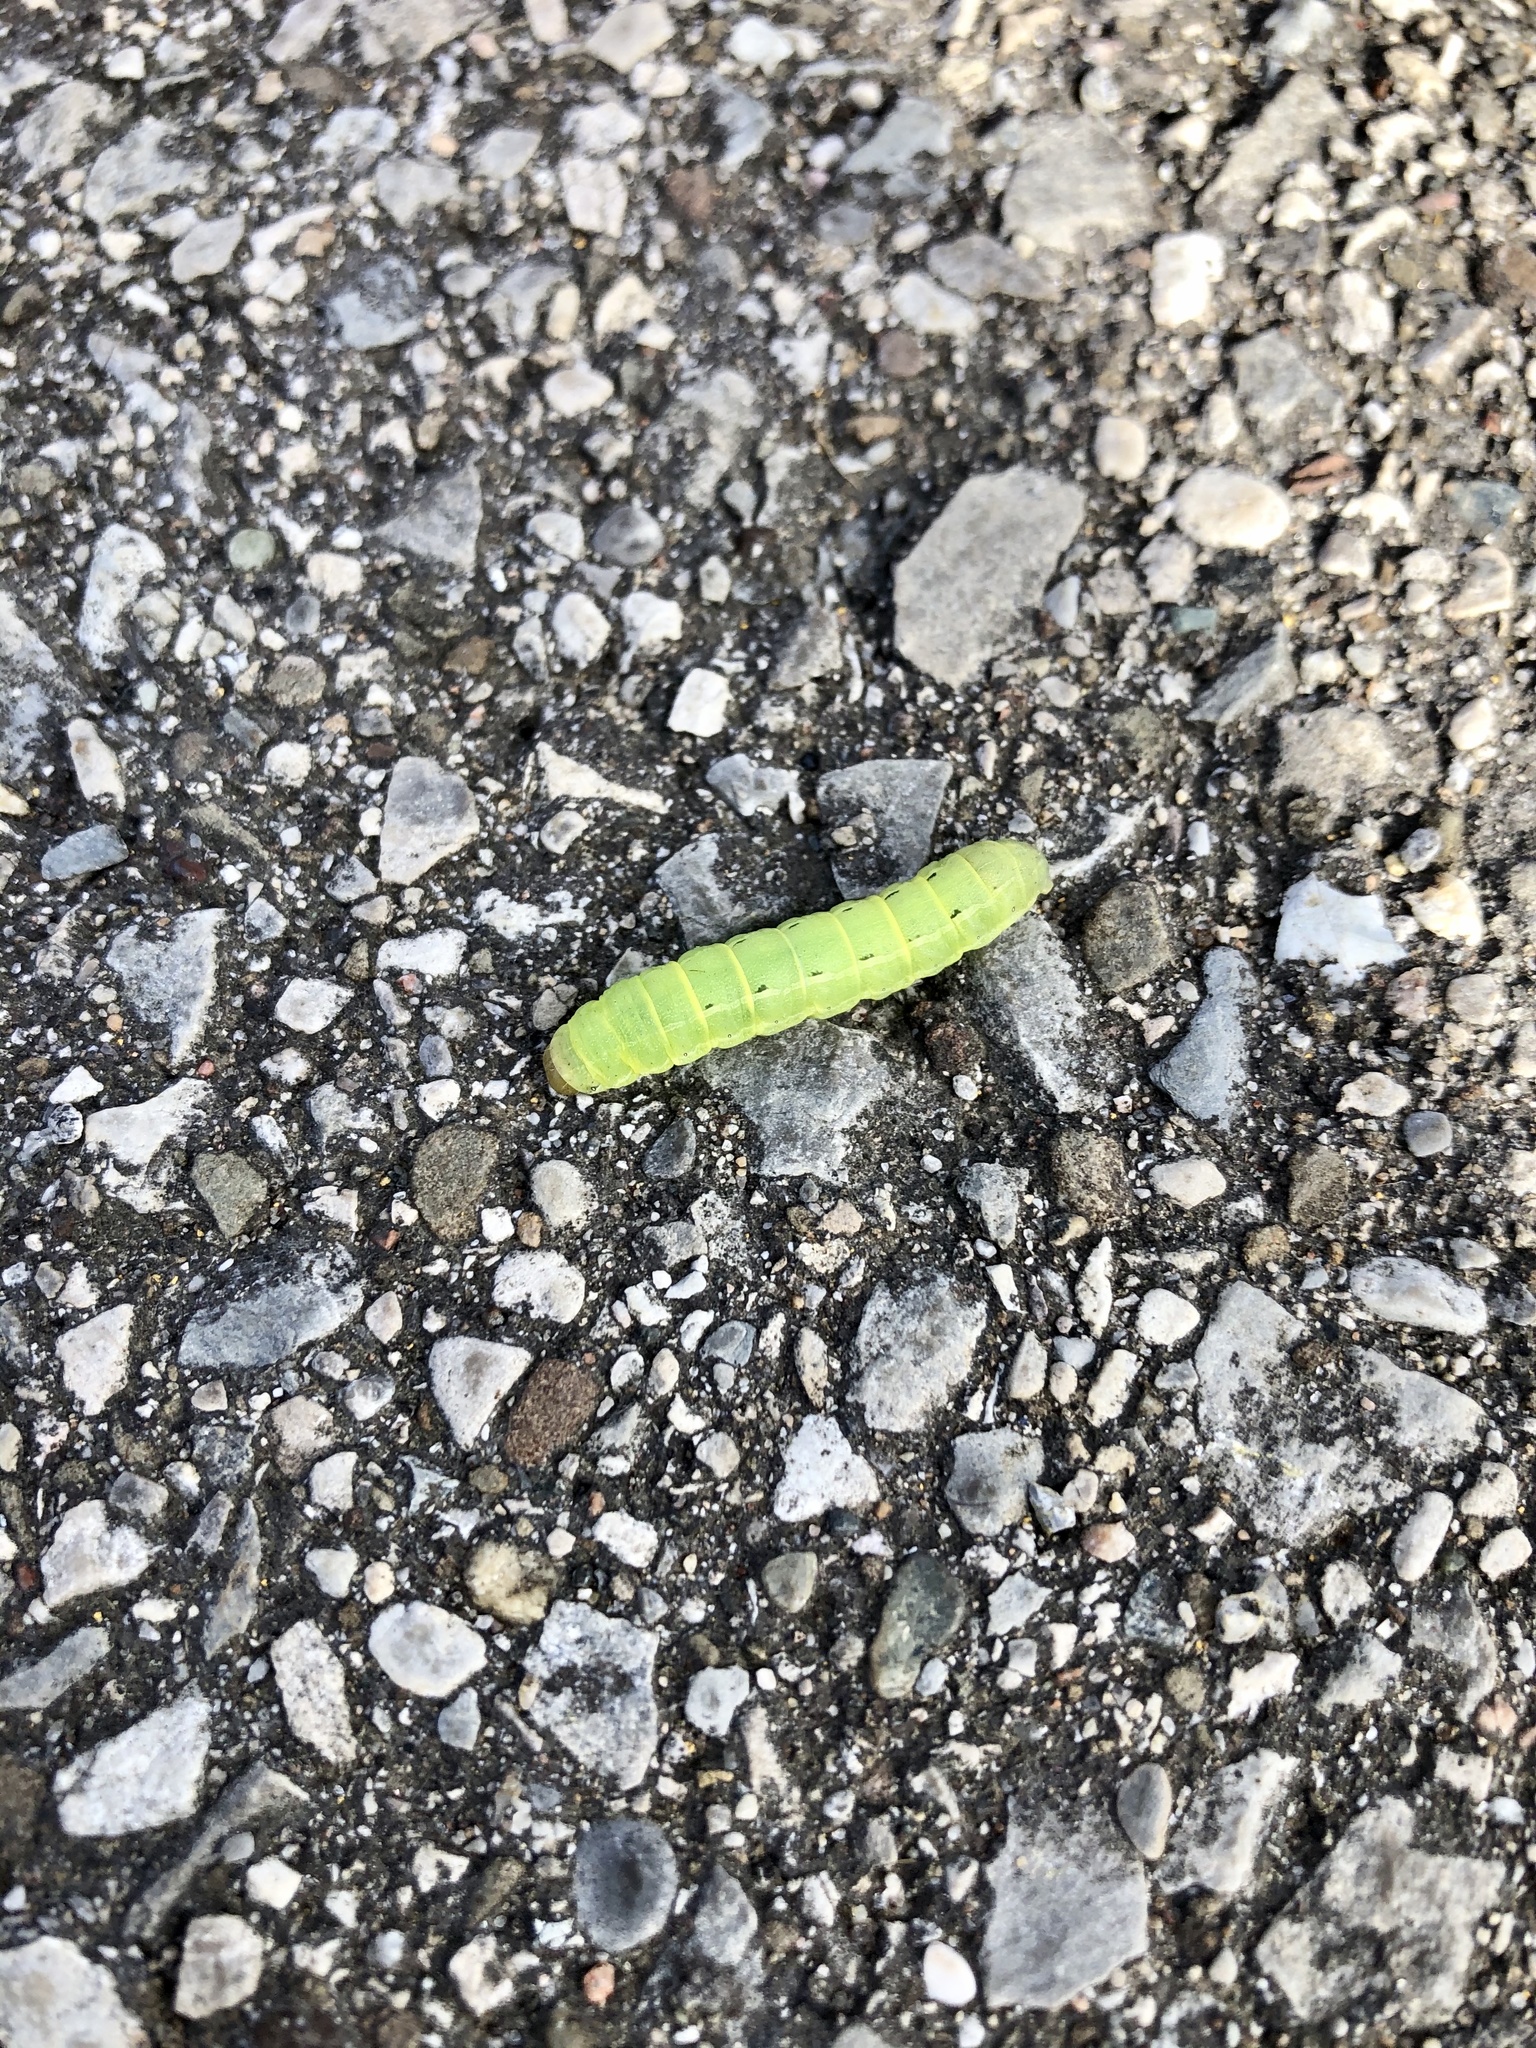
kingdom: Animalia
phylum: Arthropoda
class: Insecta
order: Lepidoptera
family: Noctuidae
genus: Noctua
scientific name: Noctua pronuba
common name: Large yellow underwing
